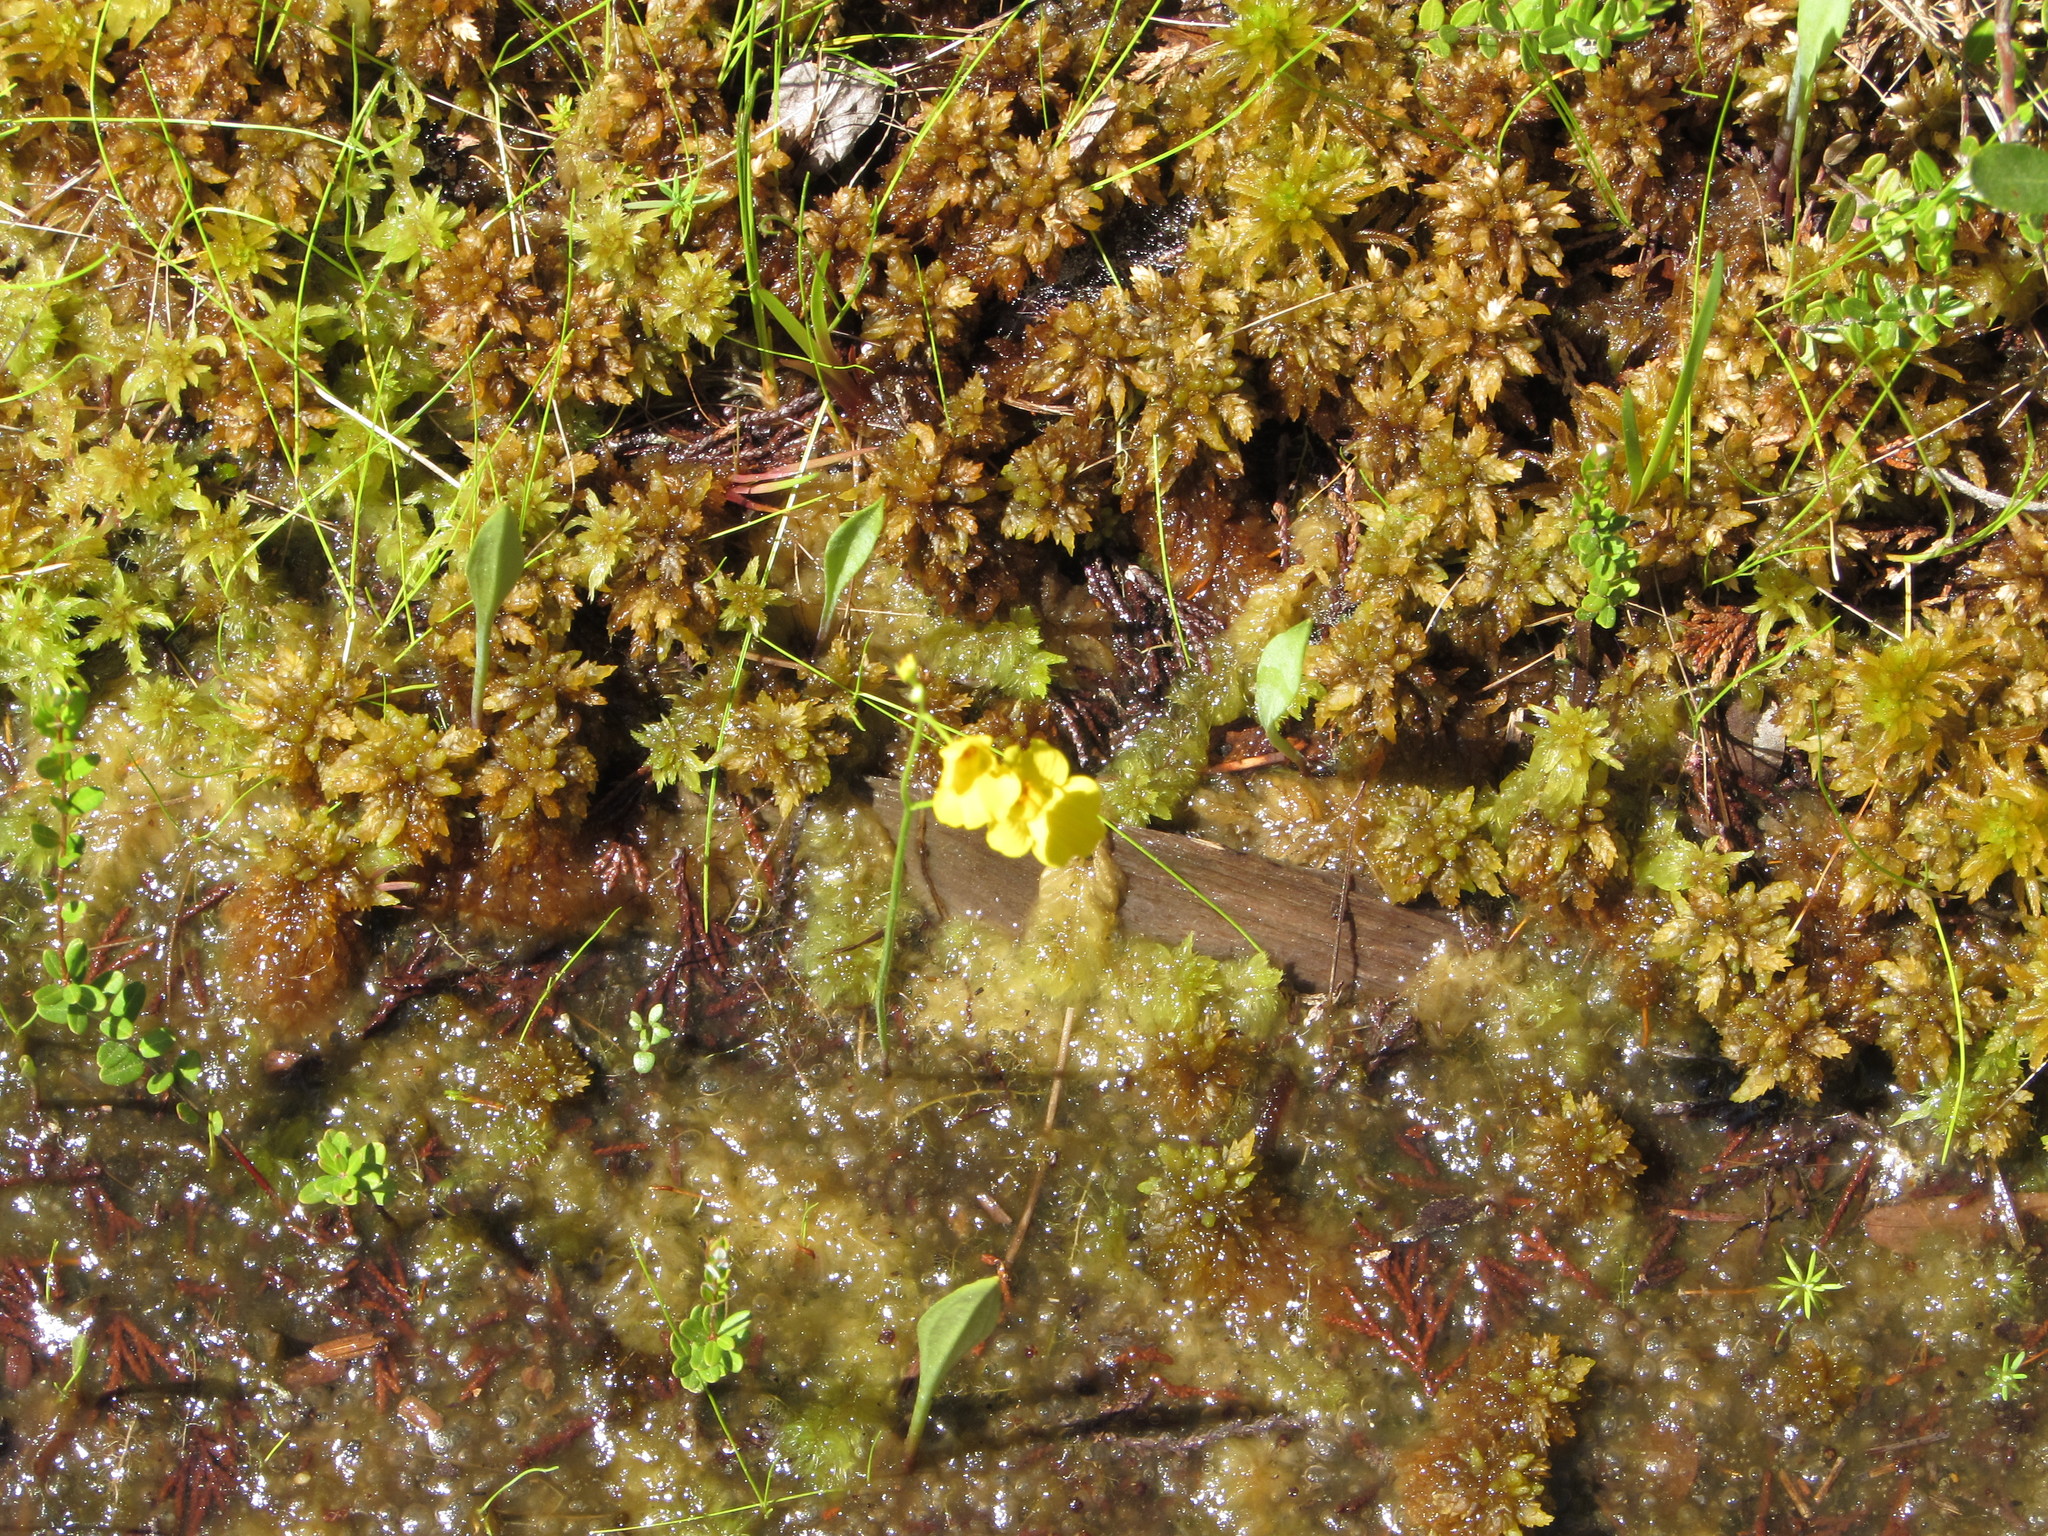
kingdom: Plantae
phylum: Tracheophyta
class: Magnoliopsida
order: Lamiales
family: Lentibulariaceae
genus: Utricularia
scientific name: Utricularia striata
